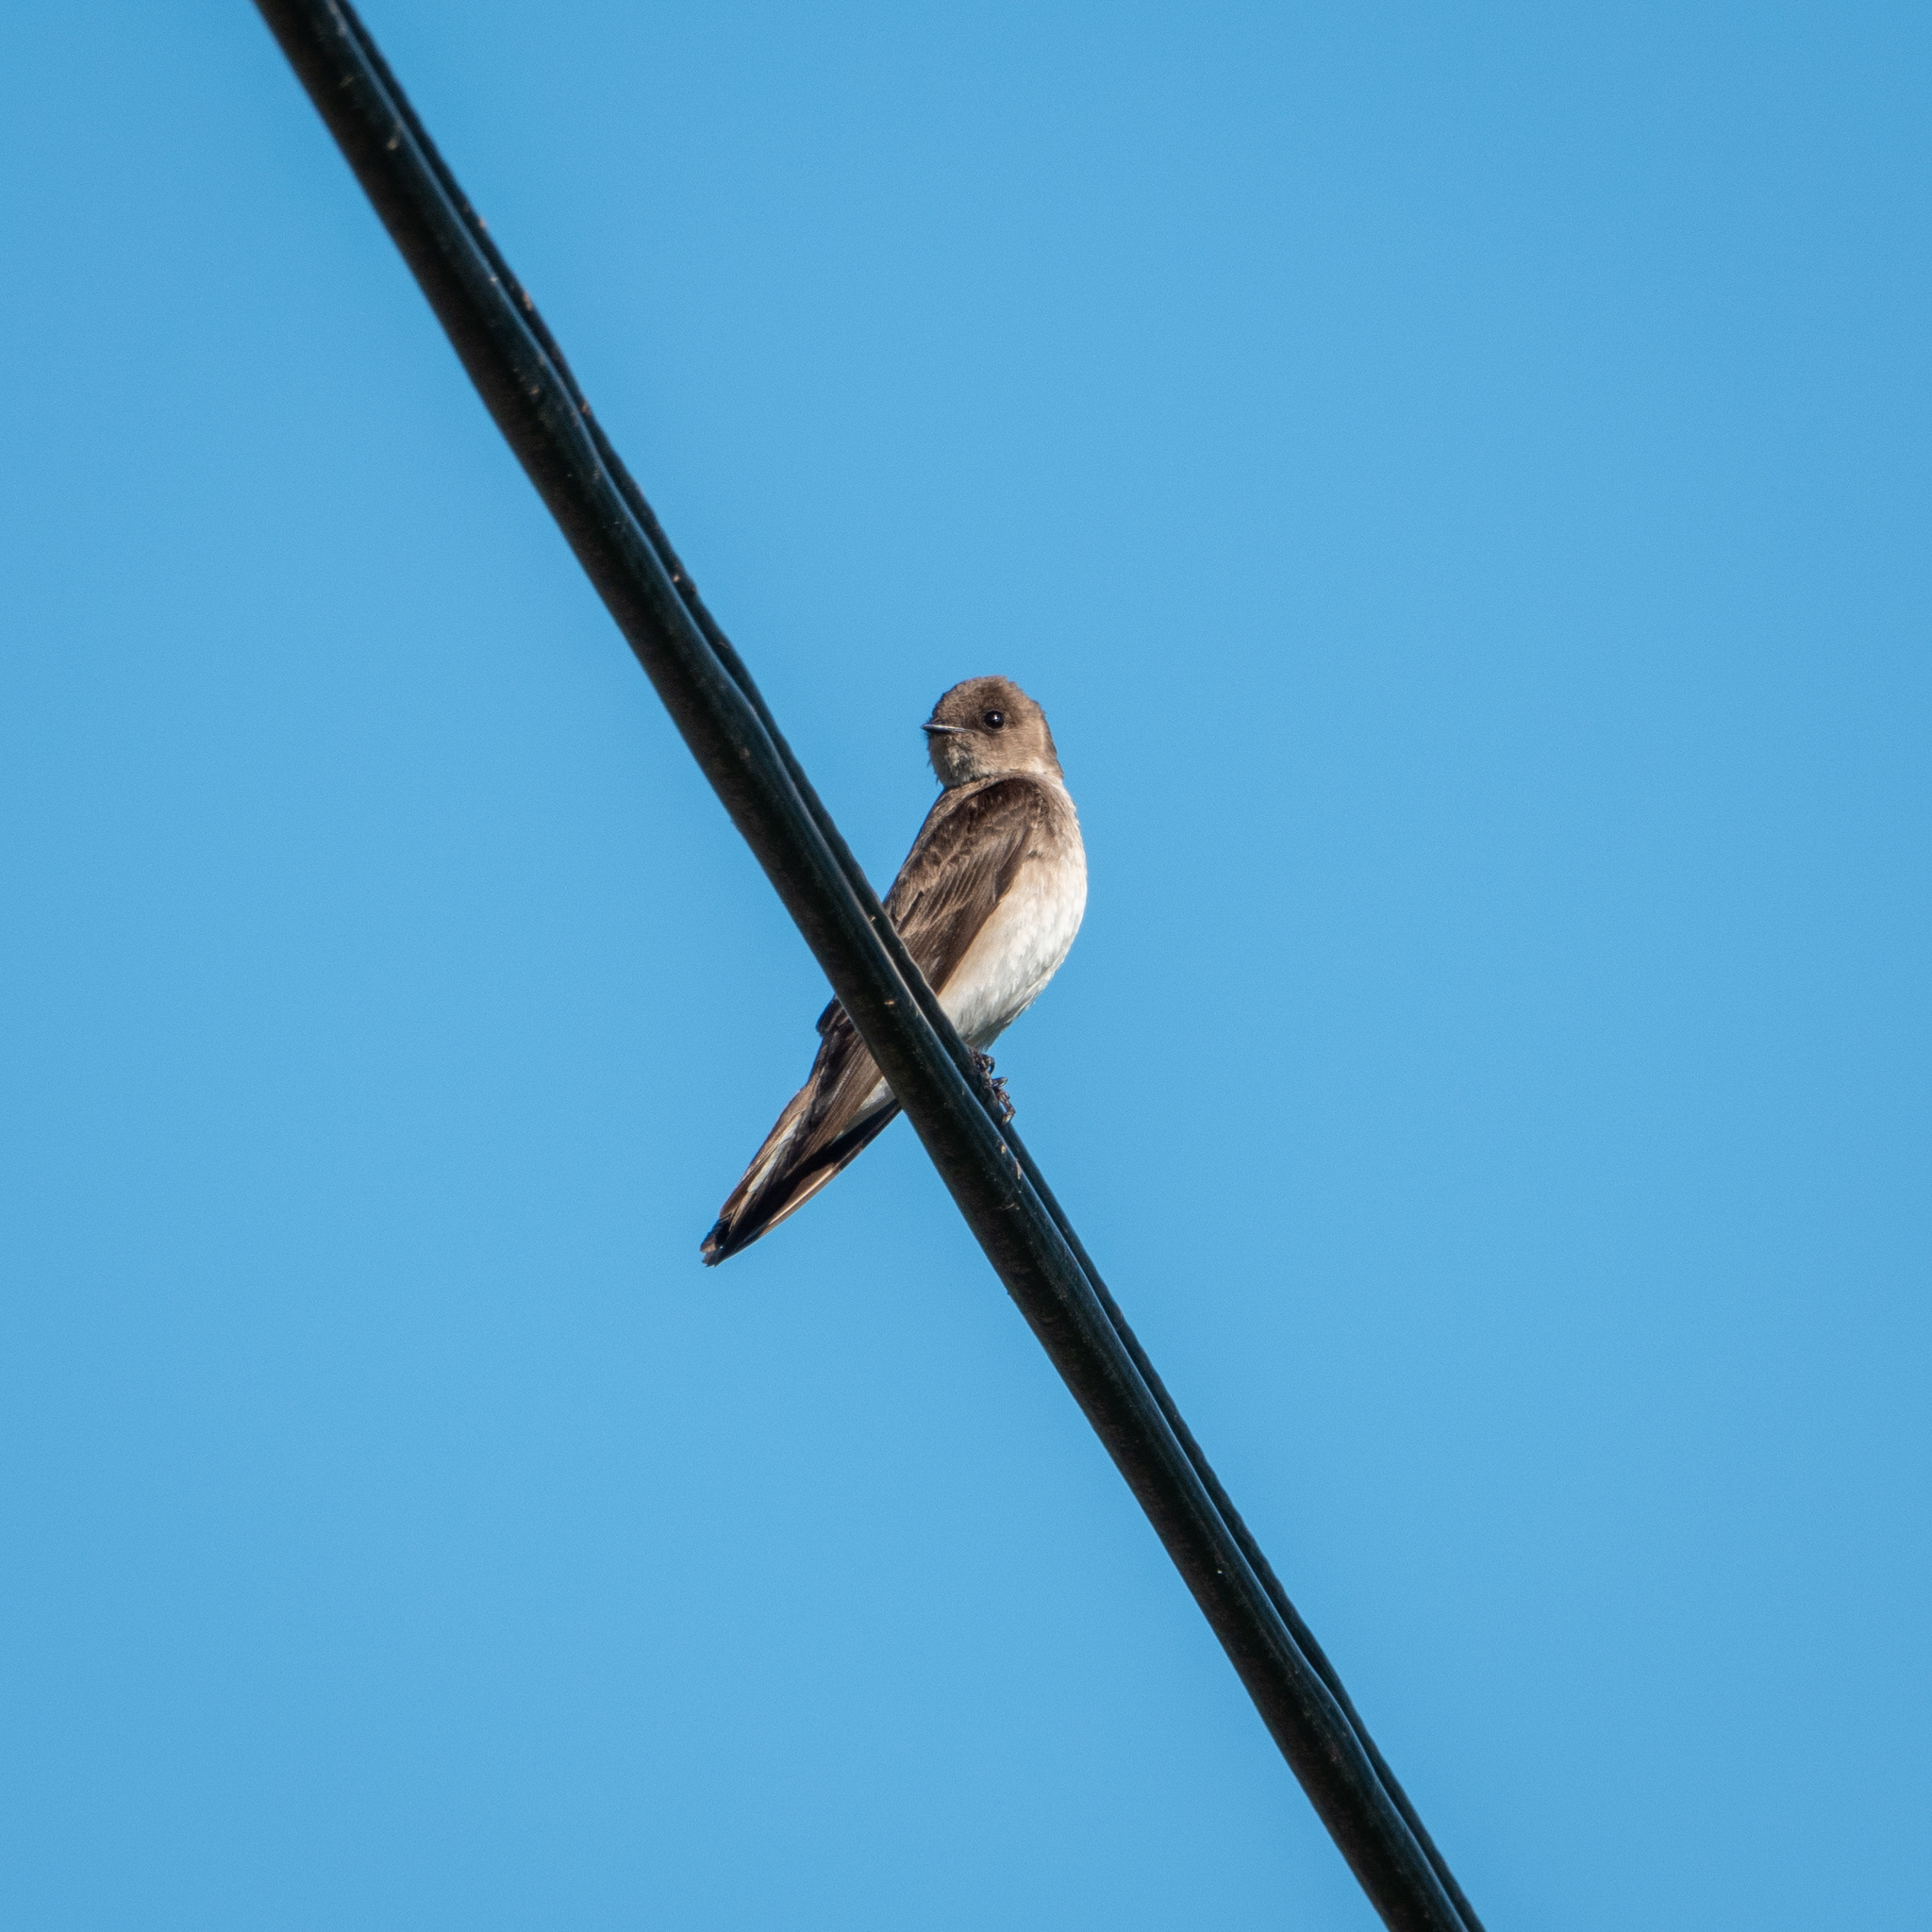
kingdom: Animalia
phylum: Chordata
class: Aves
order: Passeriformes
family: Hirundinidae
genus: Stelgidopteryx
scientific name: Stelgidopteryx serripennis
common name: Northern rough-winged swallow
